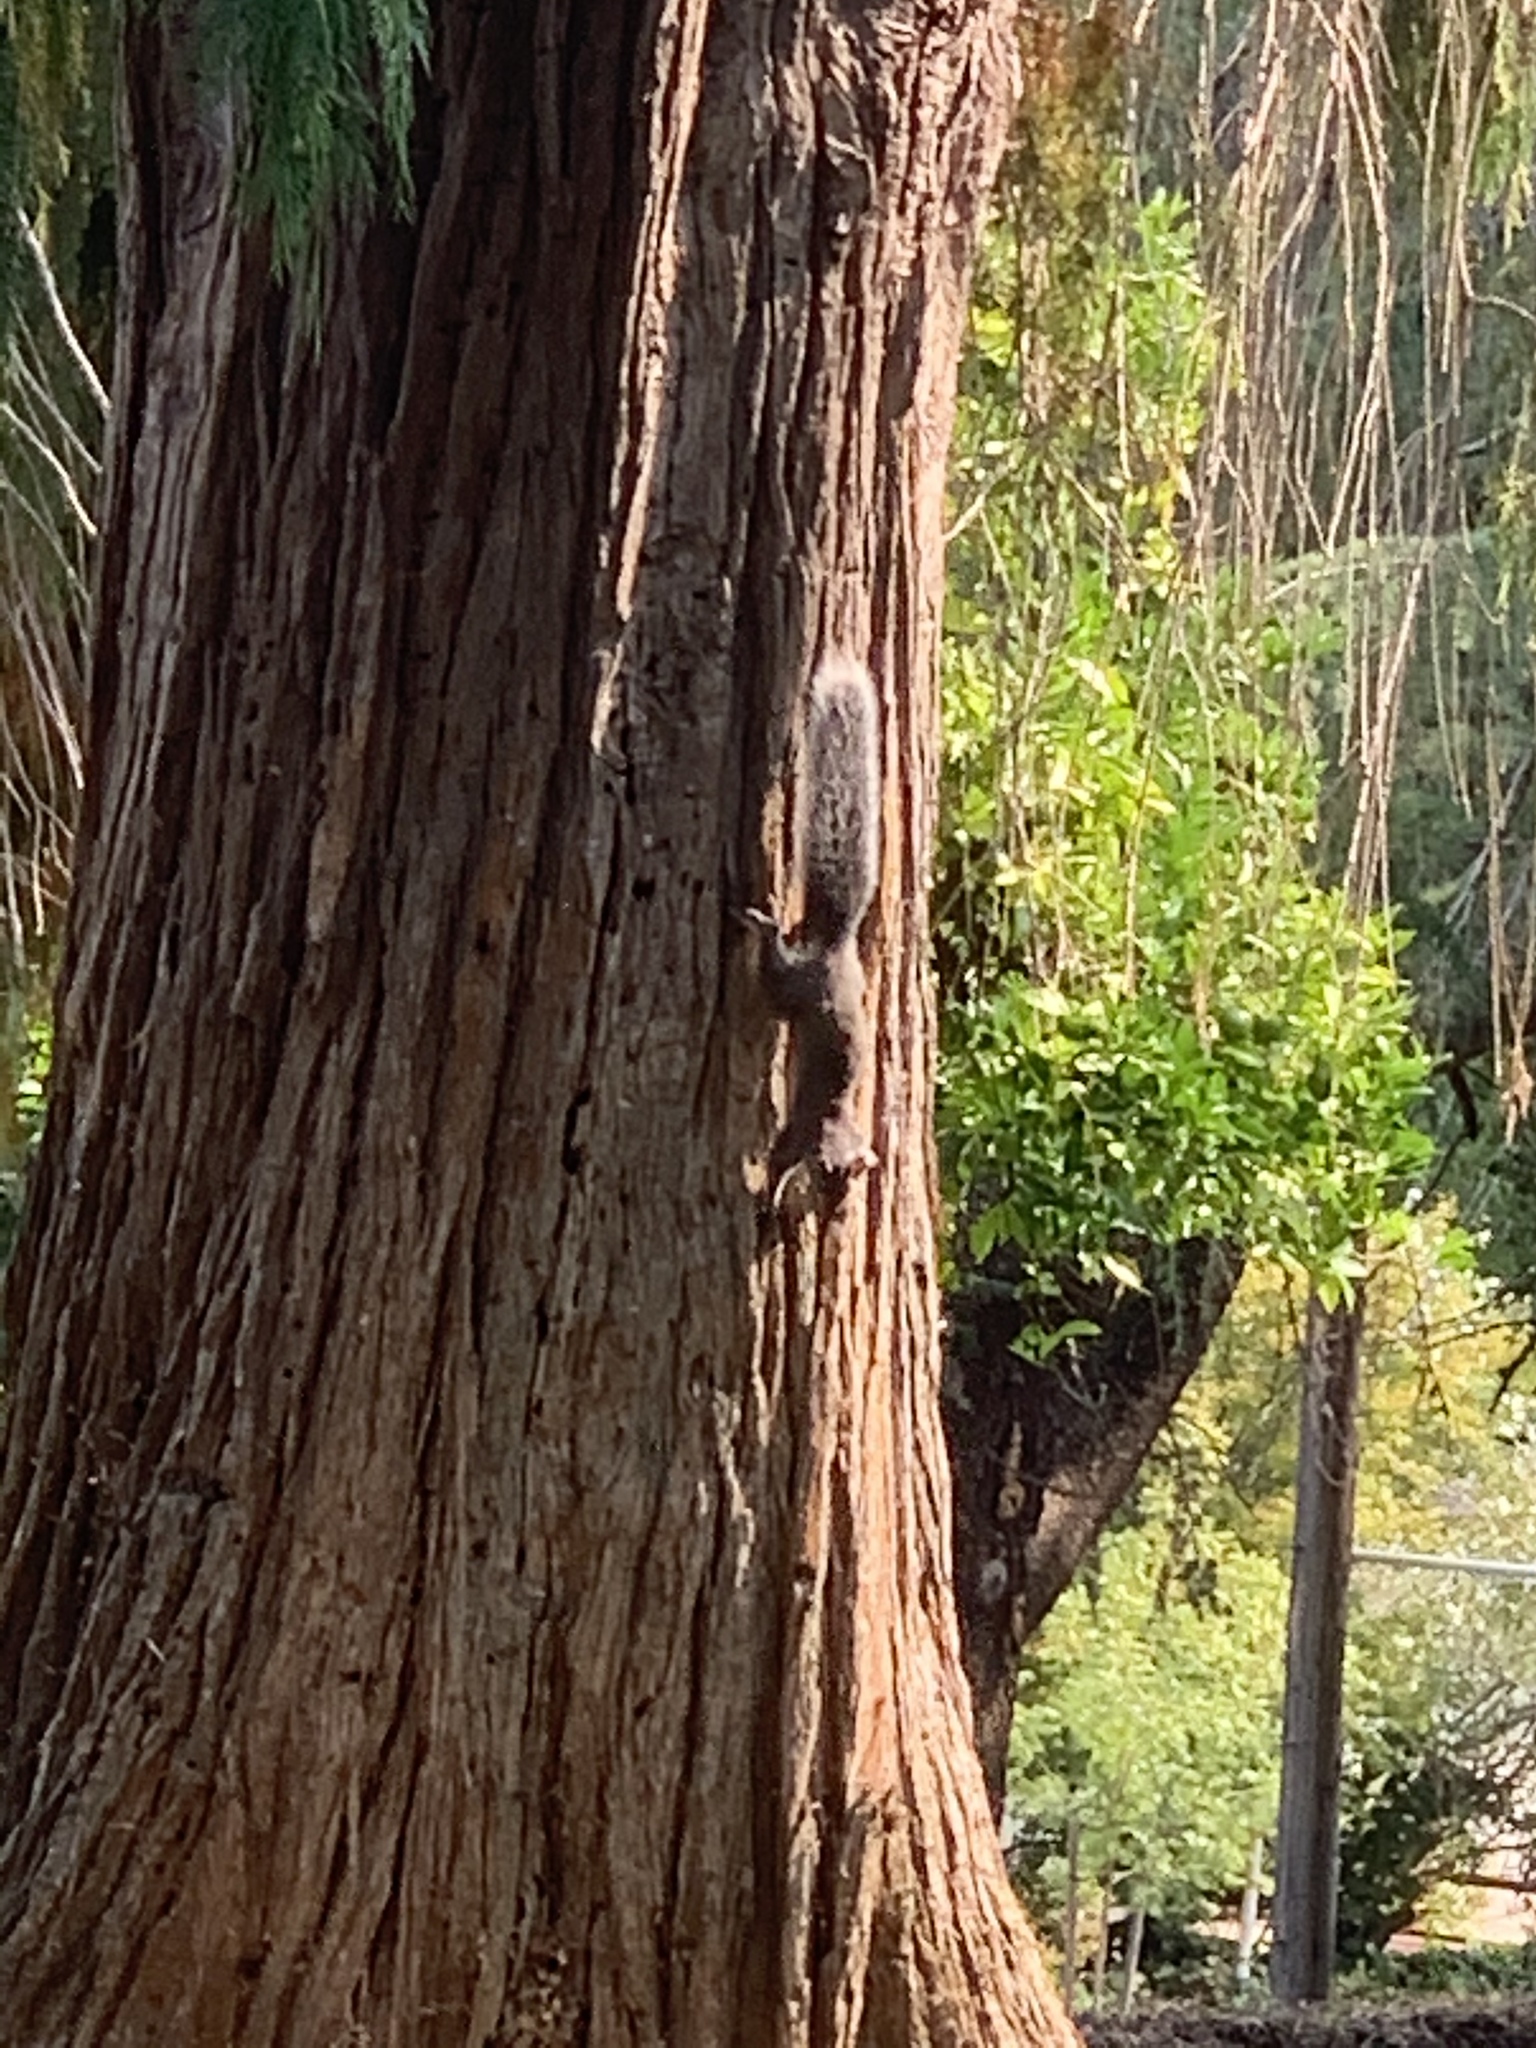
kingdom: Animalia
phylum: Chordata
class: Mammalia
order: Rodentia
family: Sciuridae
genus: Sciurus
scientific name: Sciurus griseus
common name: Western gray squirrel
